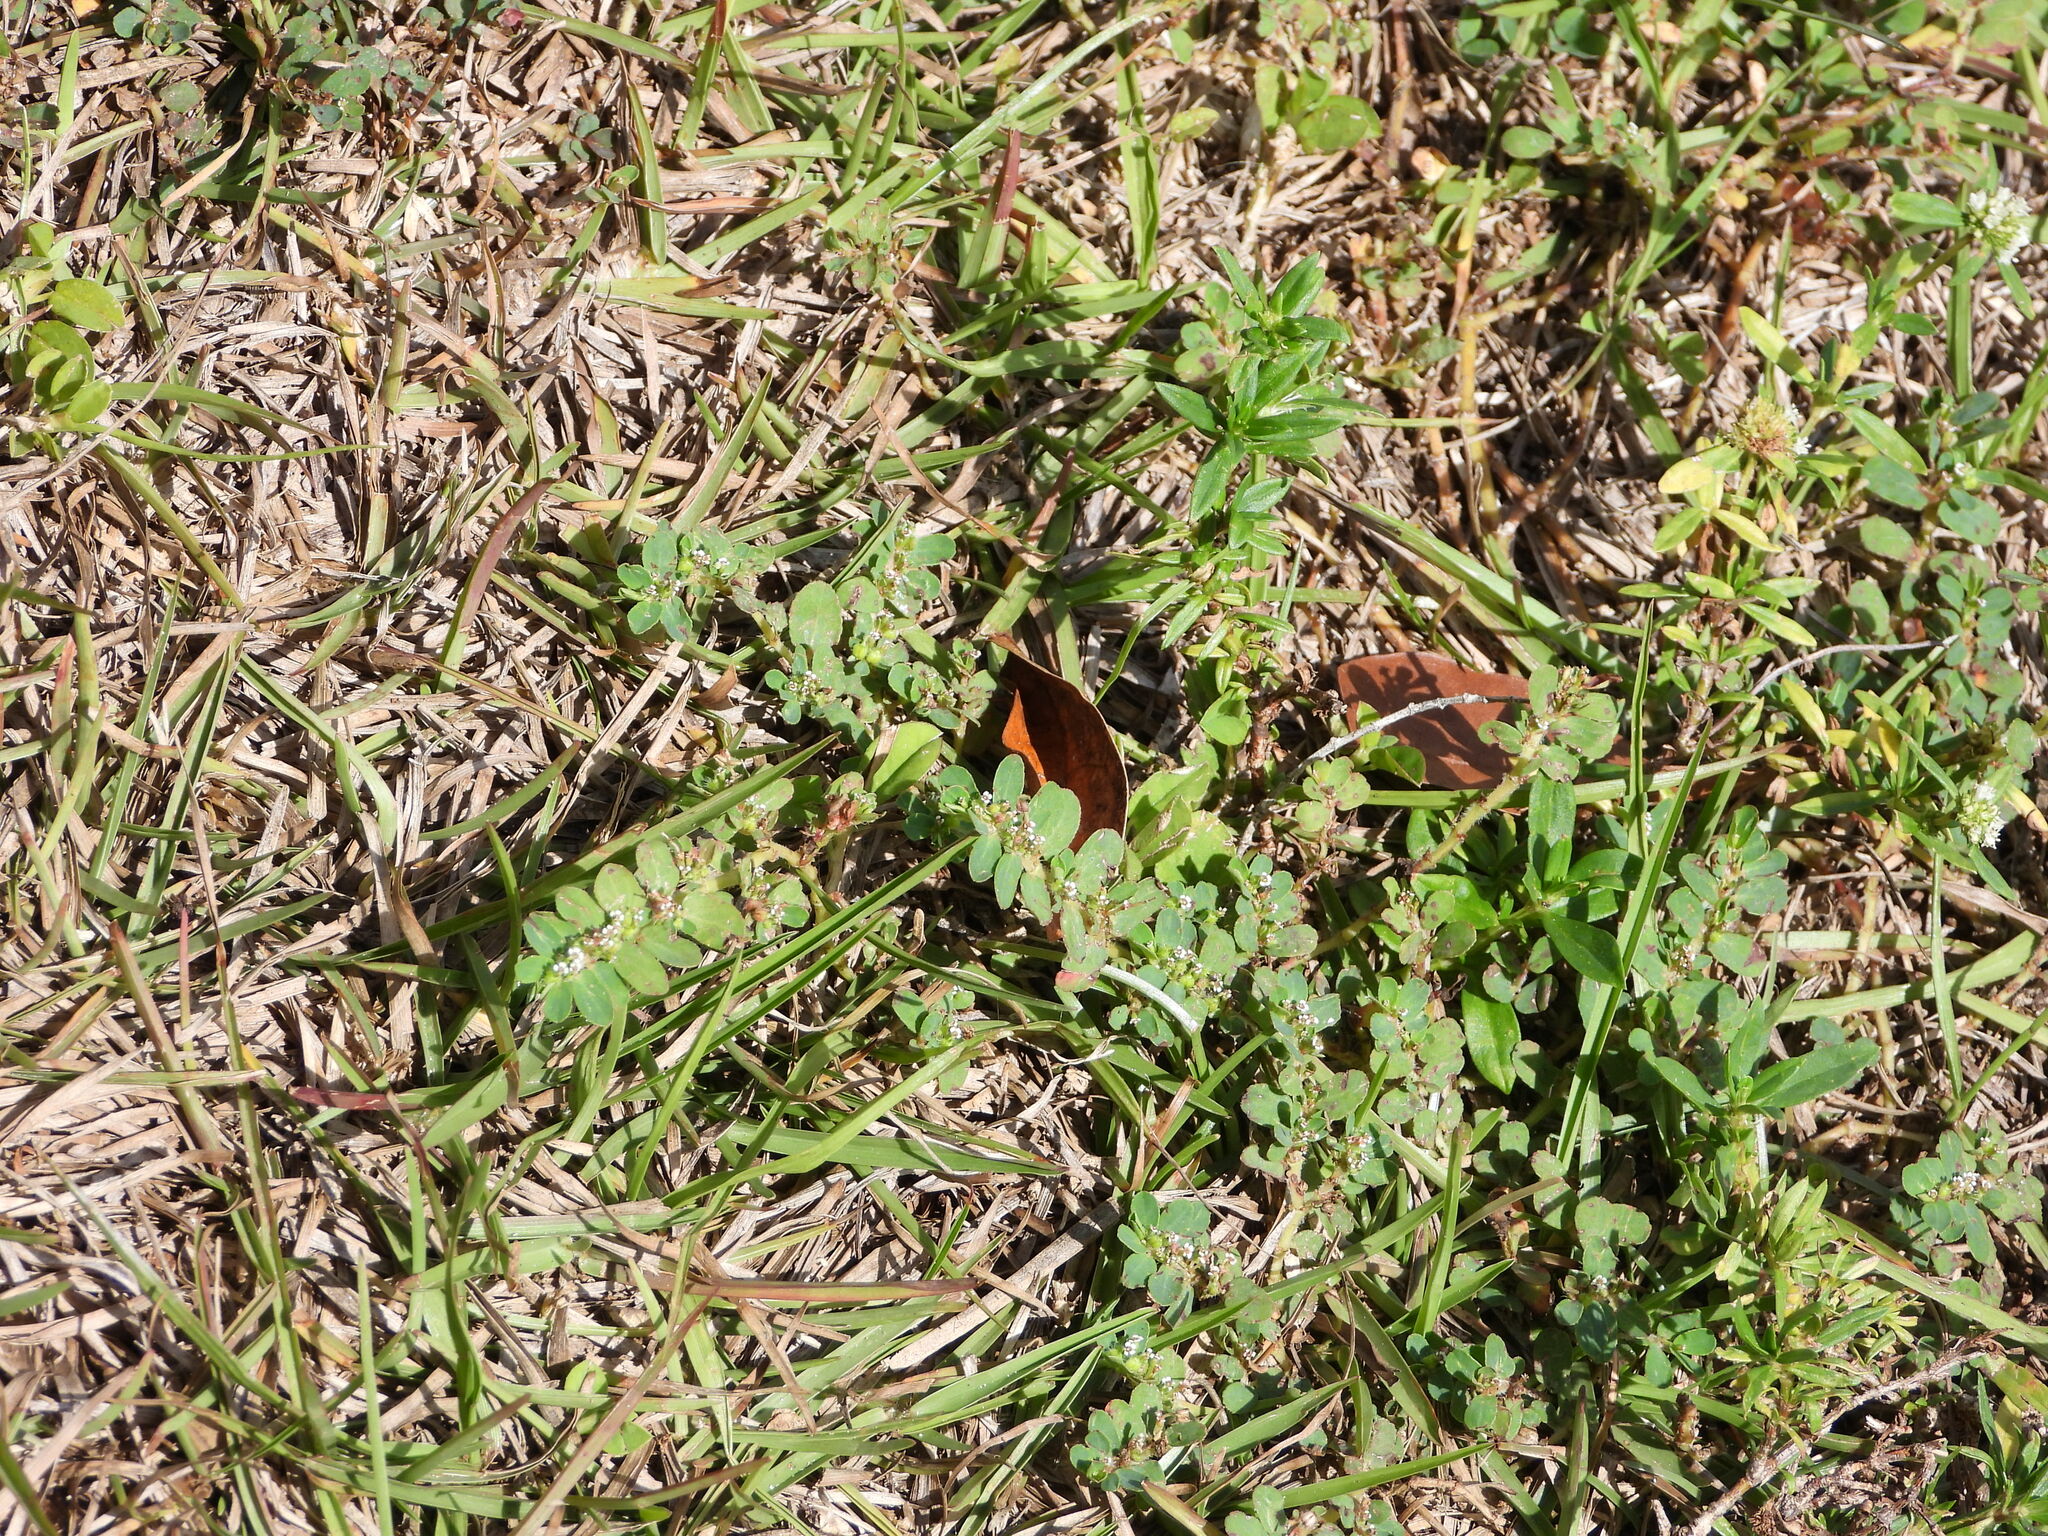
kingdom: Plantae
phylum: Tracheophyta
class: Magnoliopsida
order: Malpighiales
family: Euphorbiaceae
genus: Euphorbia
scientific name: Euphorbia mendezii
